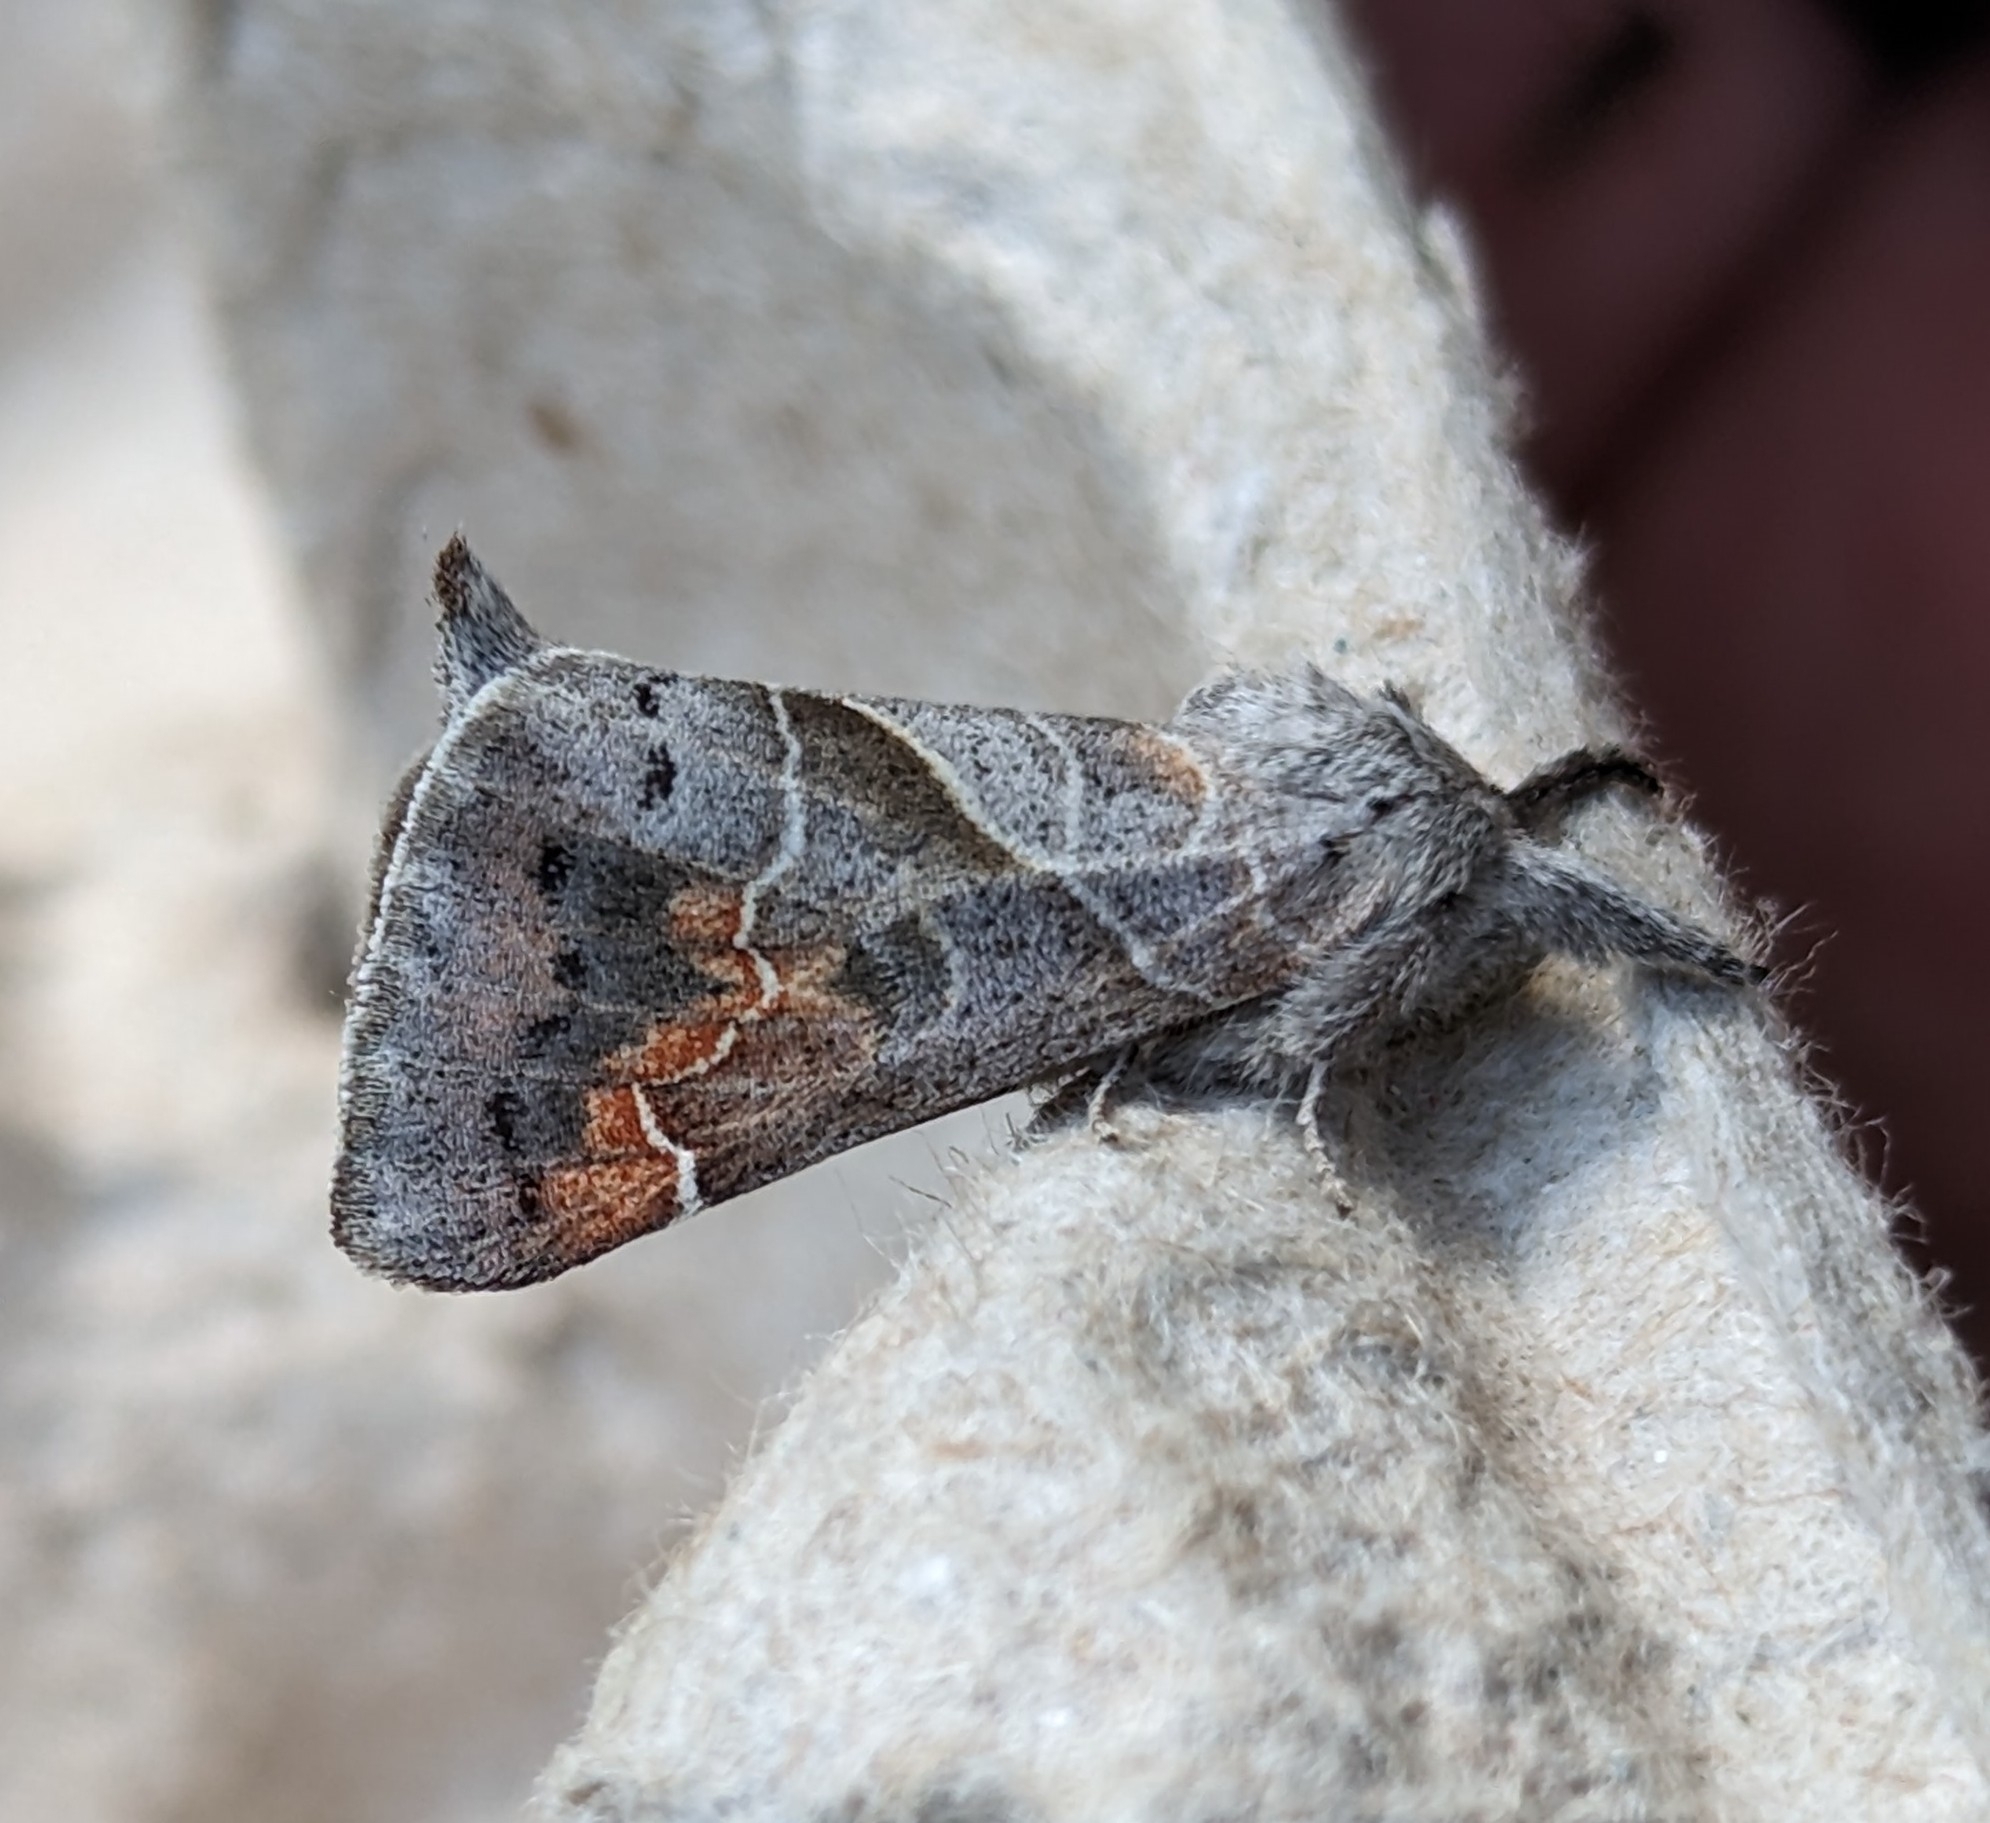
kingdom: Animalia
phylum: Arthropoda
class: Insecta
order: Lepidoptera
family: Notodontidae
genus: Clostera
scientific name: Clostera apicalis
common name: Apical prominent
